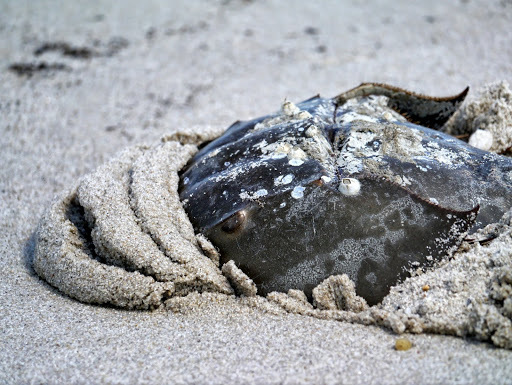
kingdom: Animalia
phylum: Arthropoda
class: Merostomata
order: Xiphosurida
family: Limulidae
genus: Limulus
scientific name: Limulus polyphemus
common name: Horseshoe crab
